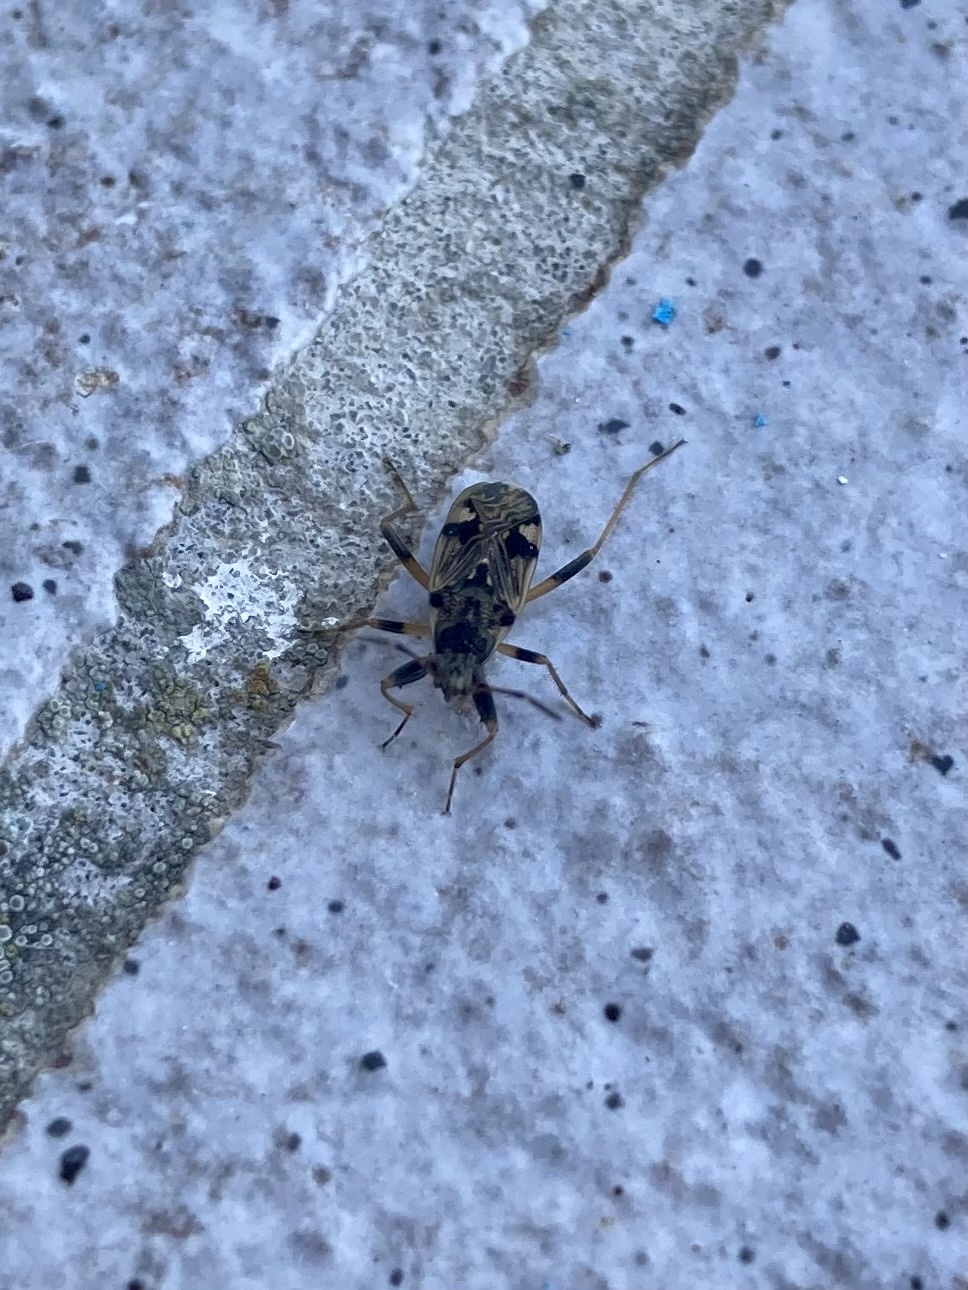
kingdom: Animalia
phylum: Arthropoda
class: Insecta
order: Hemiptera
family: Rhyparochromidae
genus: Beosus
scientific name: Beosus maritimus
